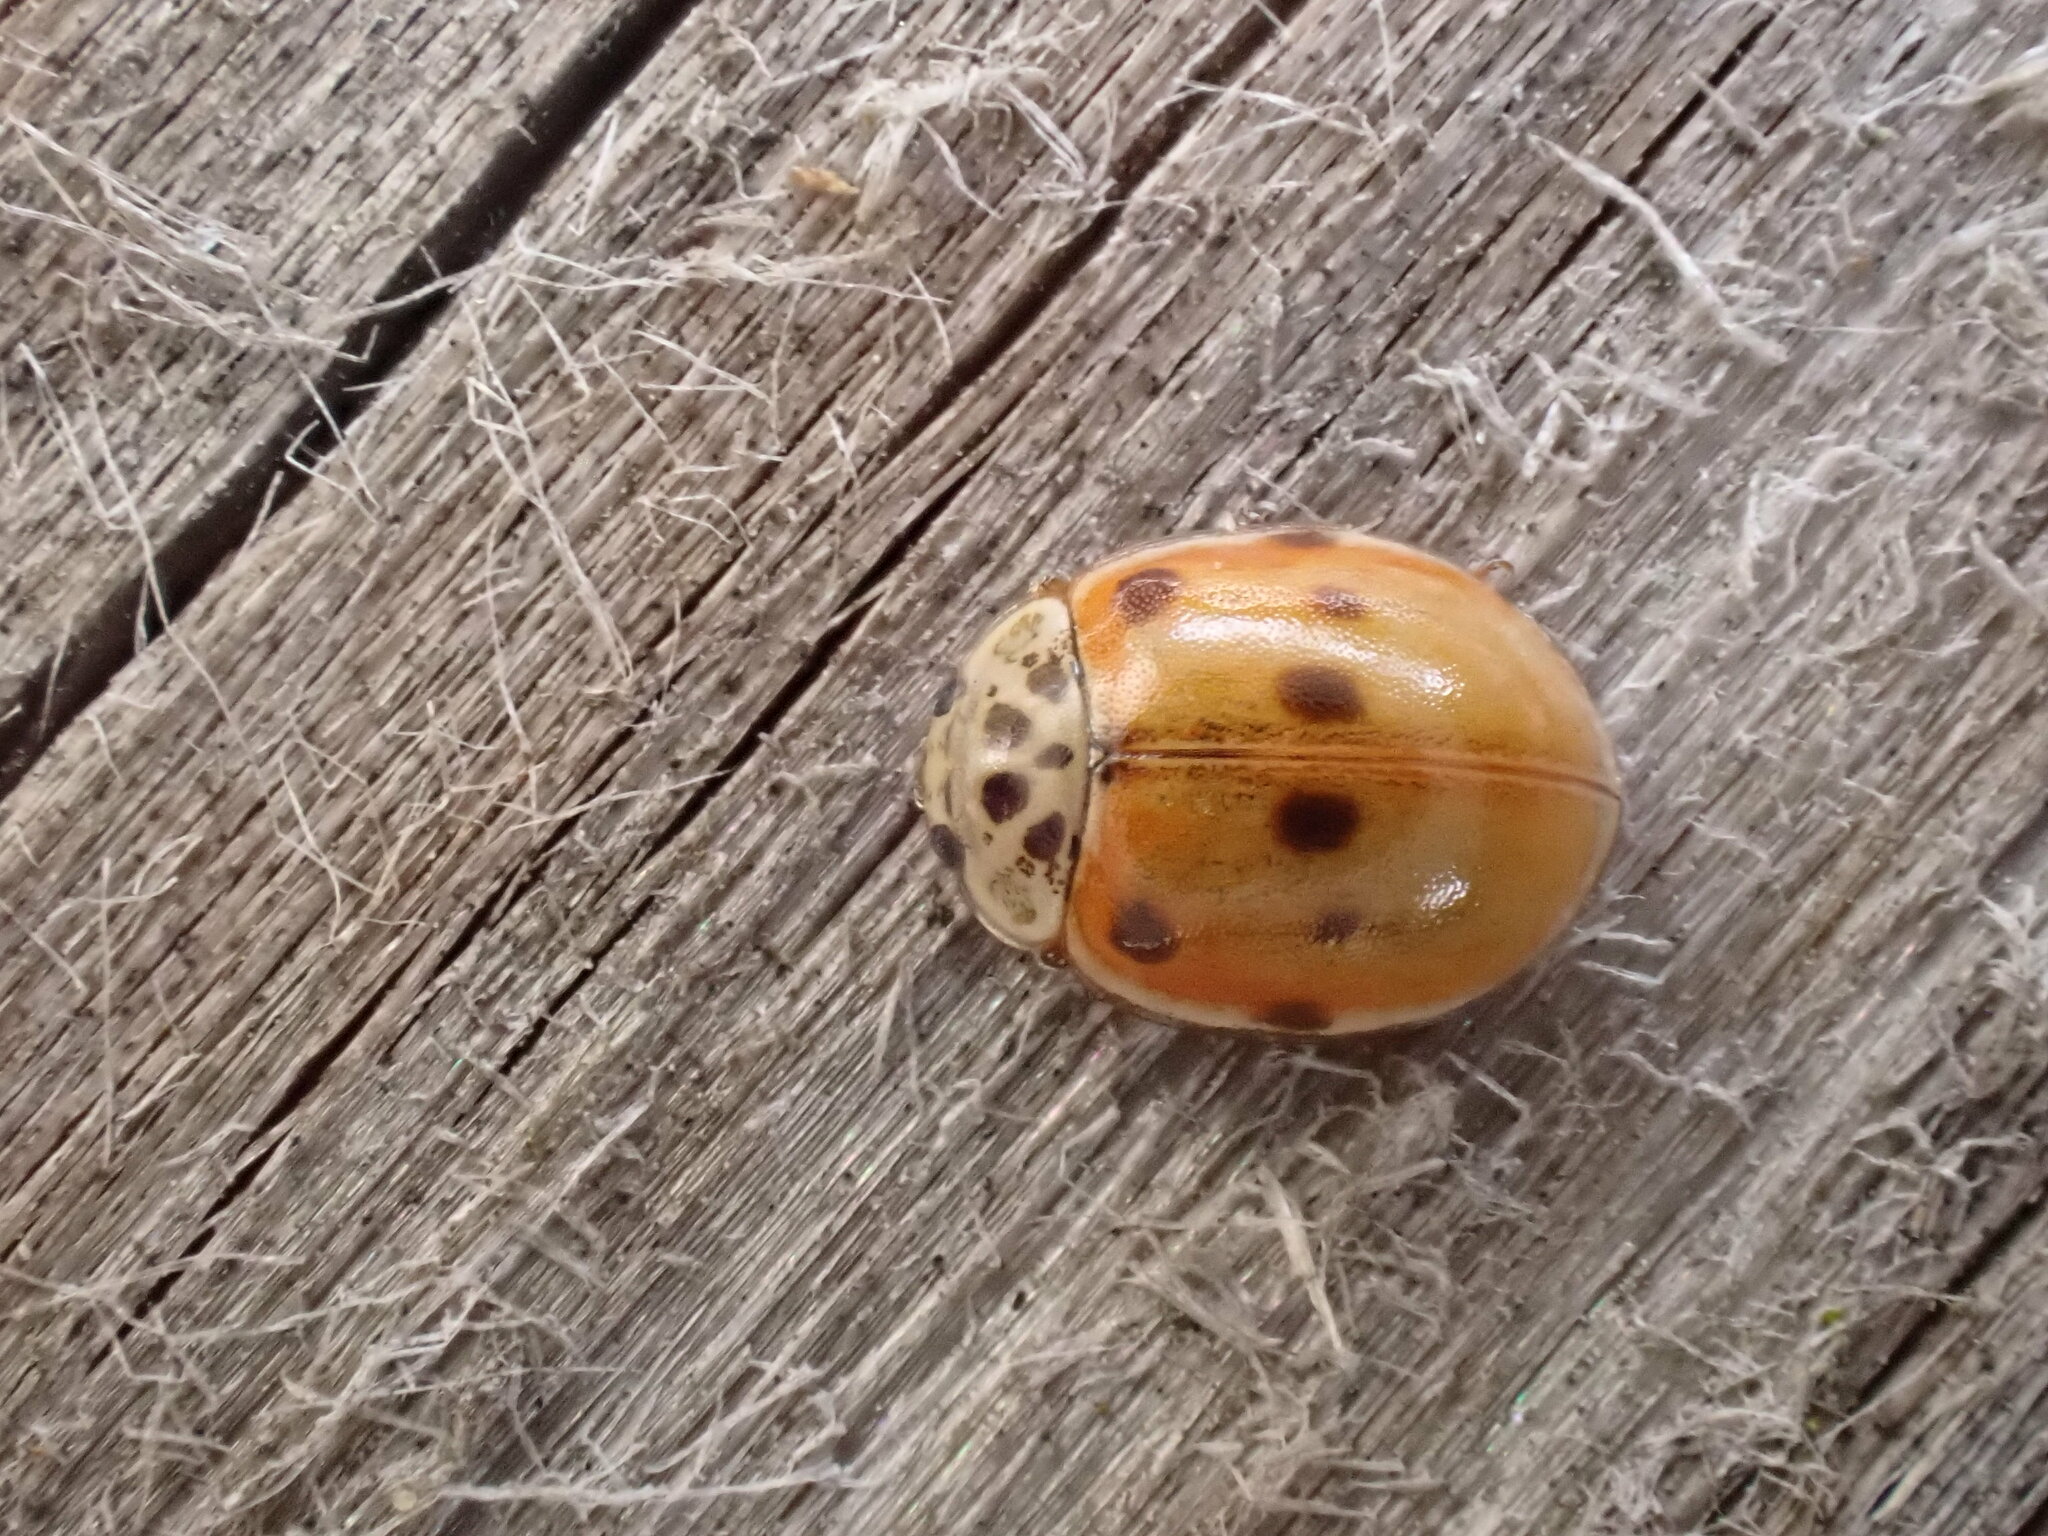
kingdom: Animalia
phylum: Arthropoda
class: Insecta
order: Coleoptera
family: Coccinellidae
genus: Adalia
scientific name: Adalia decempunctata
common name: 10-spot ladybird
